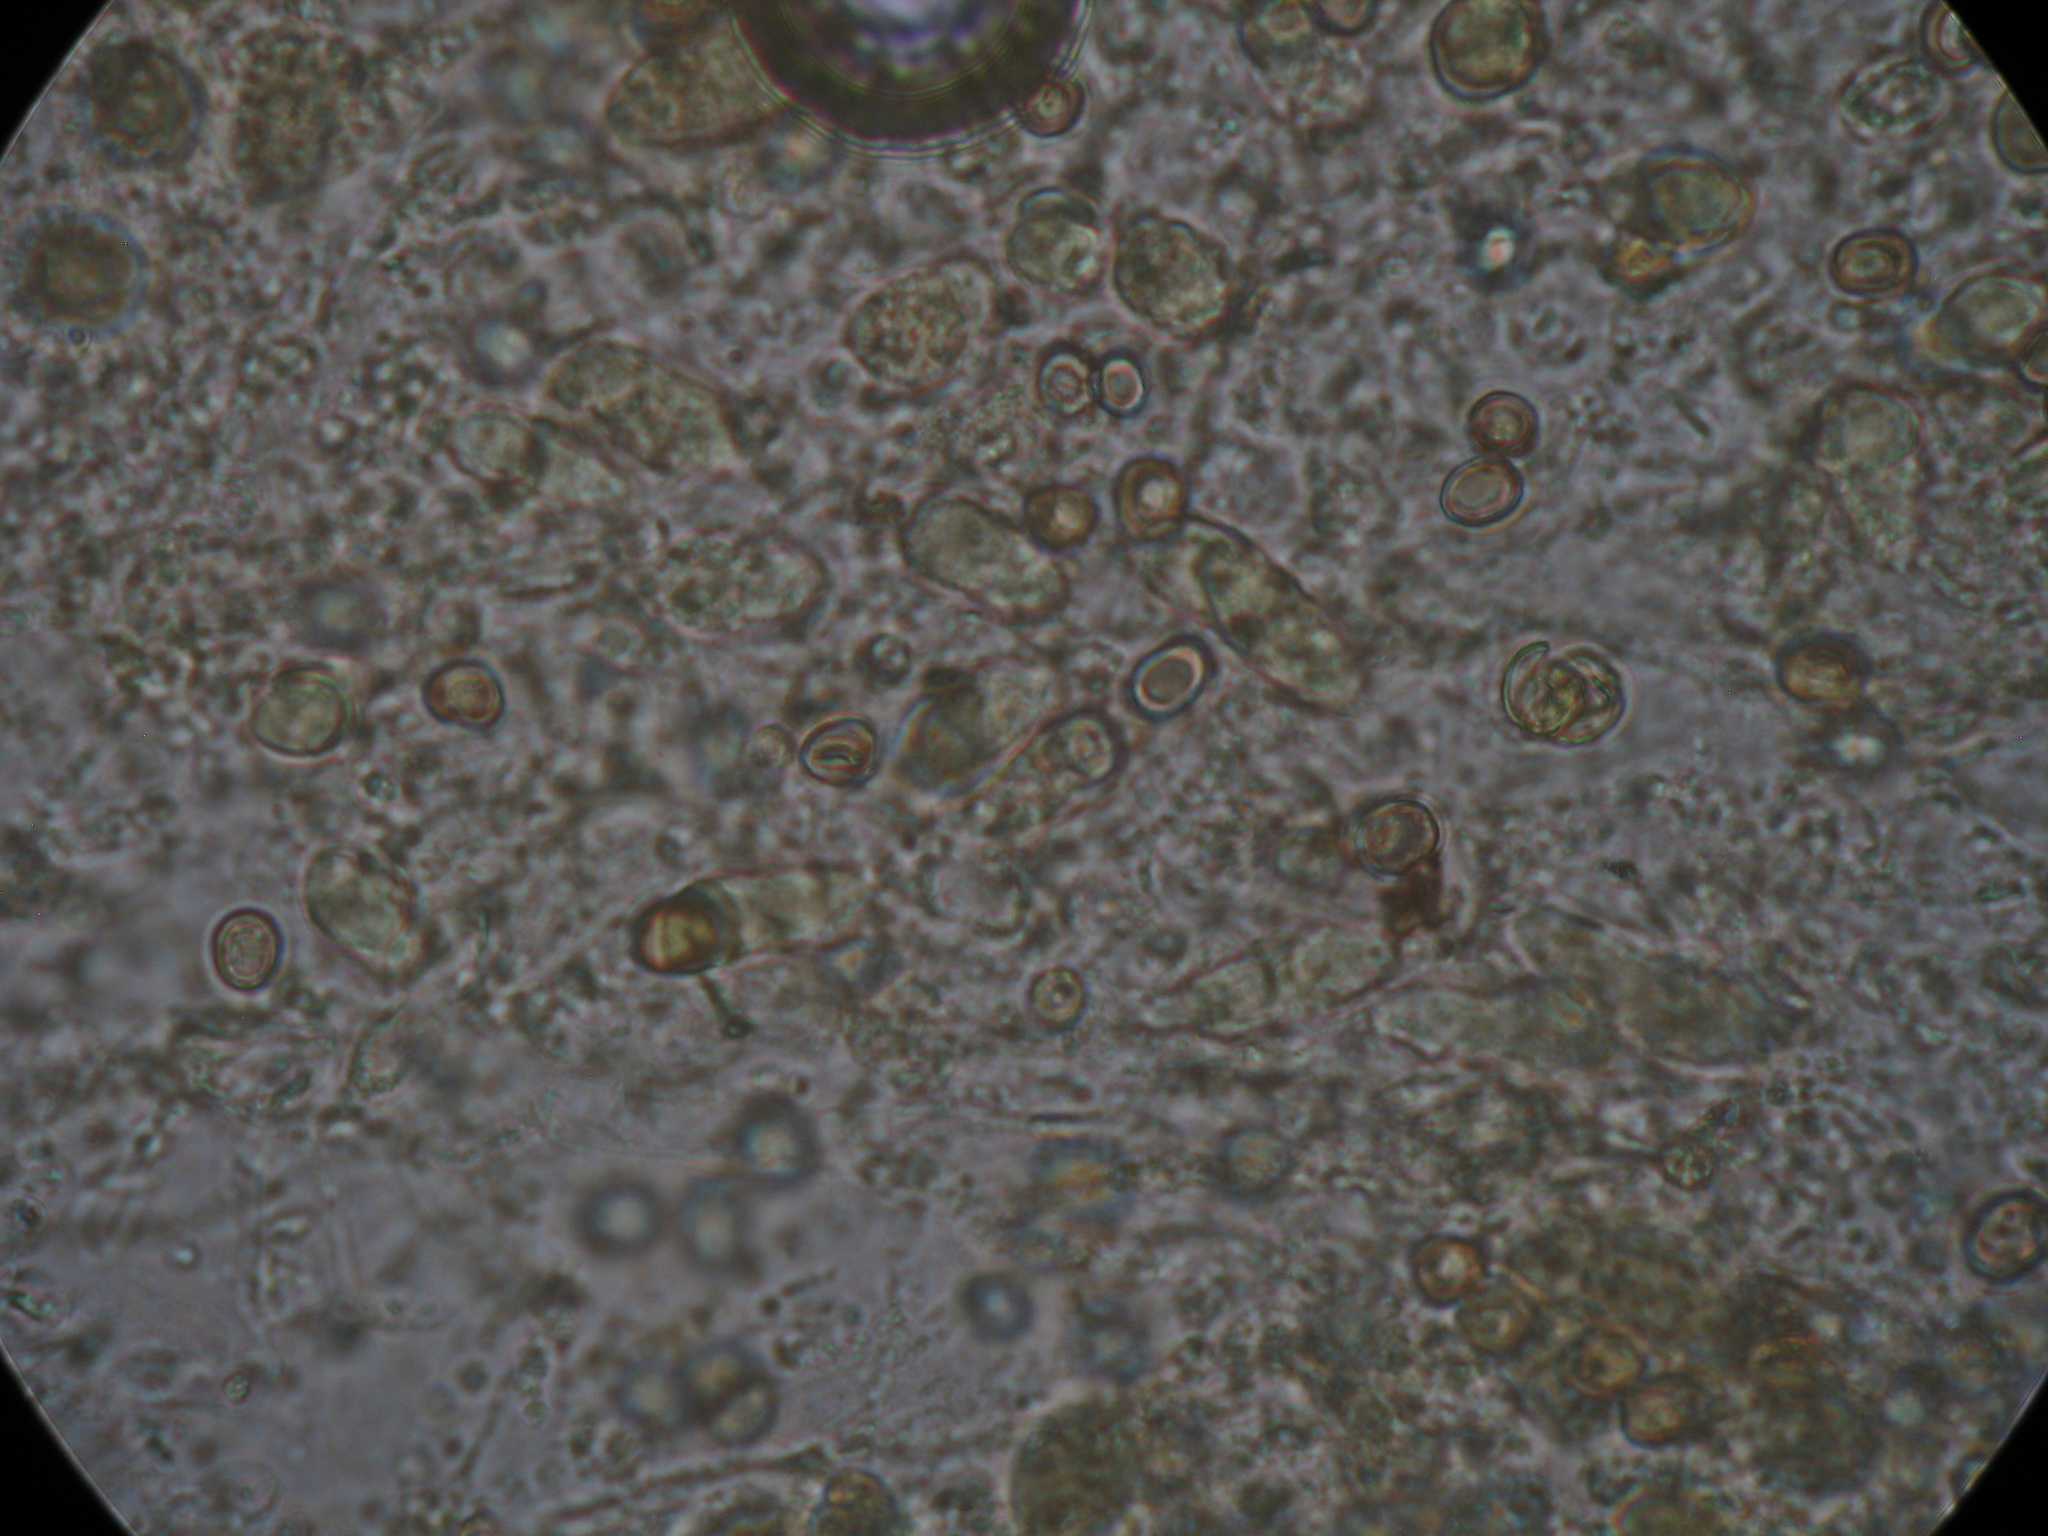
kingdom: Fungi
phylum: Basidiomycota
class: Agaricomycetes
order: Agaricales
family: Pluteaceae
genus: Pluteus
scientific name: Pluteus perroseus
